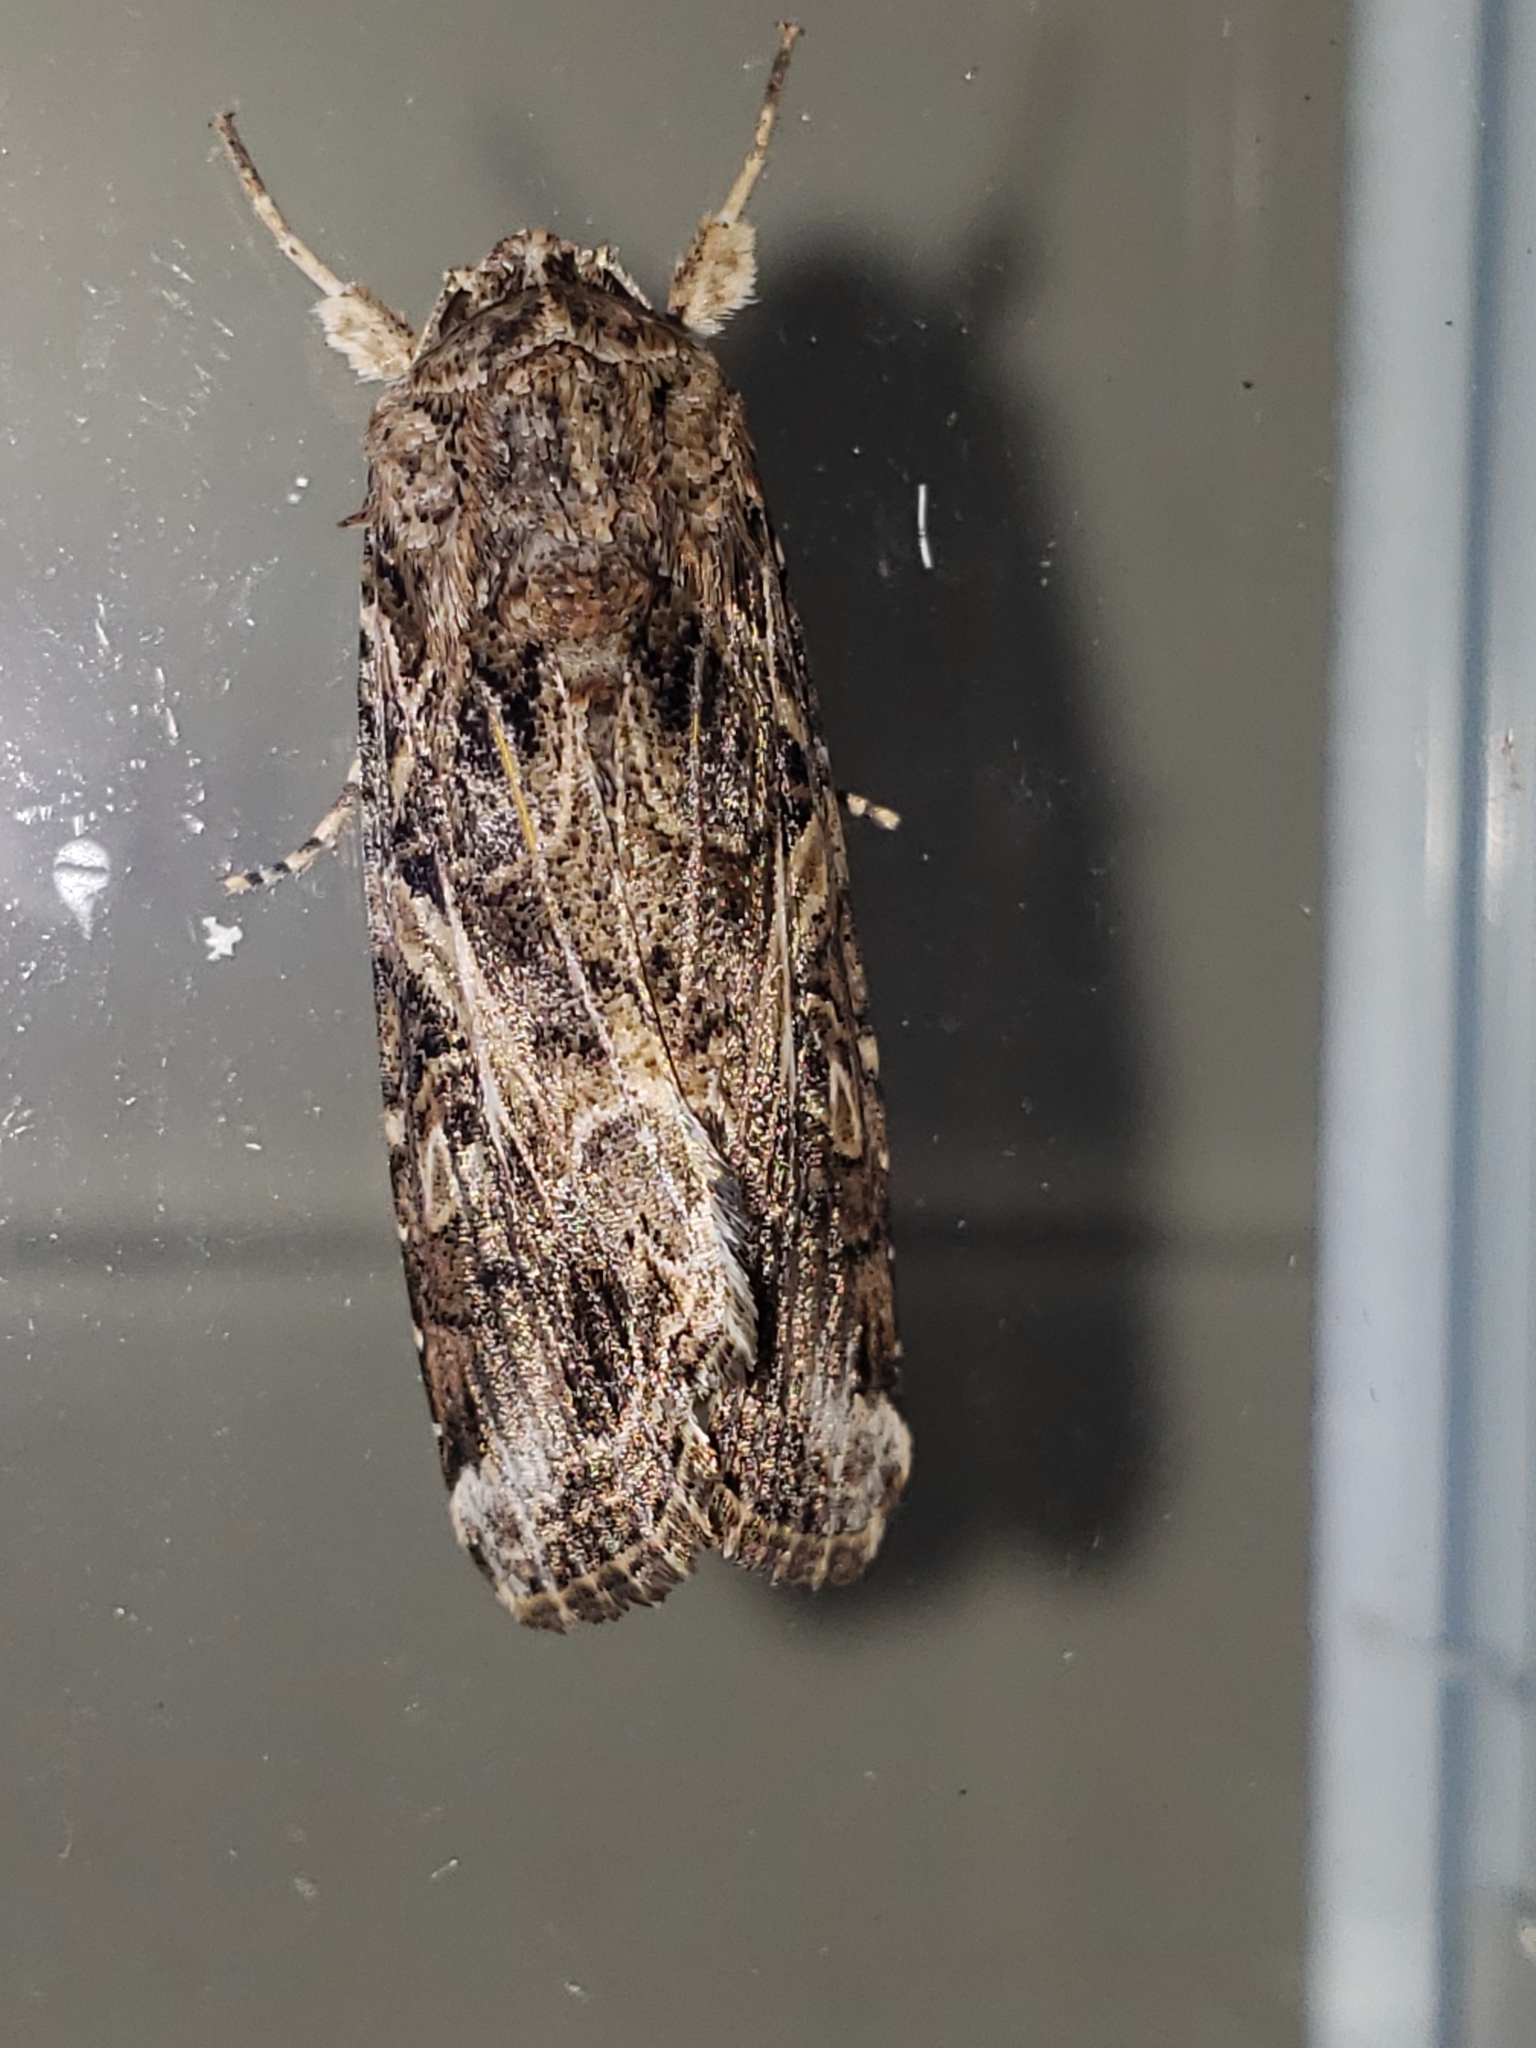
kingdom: Animalia
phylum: Arthropoda
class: Insecta
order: Lepidoptera
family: Noctuidae
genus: Spodoptera
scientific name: Spodoptera ornithogalli
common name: Yellow-striped armyworm
